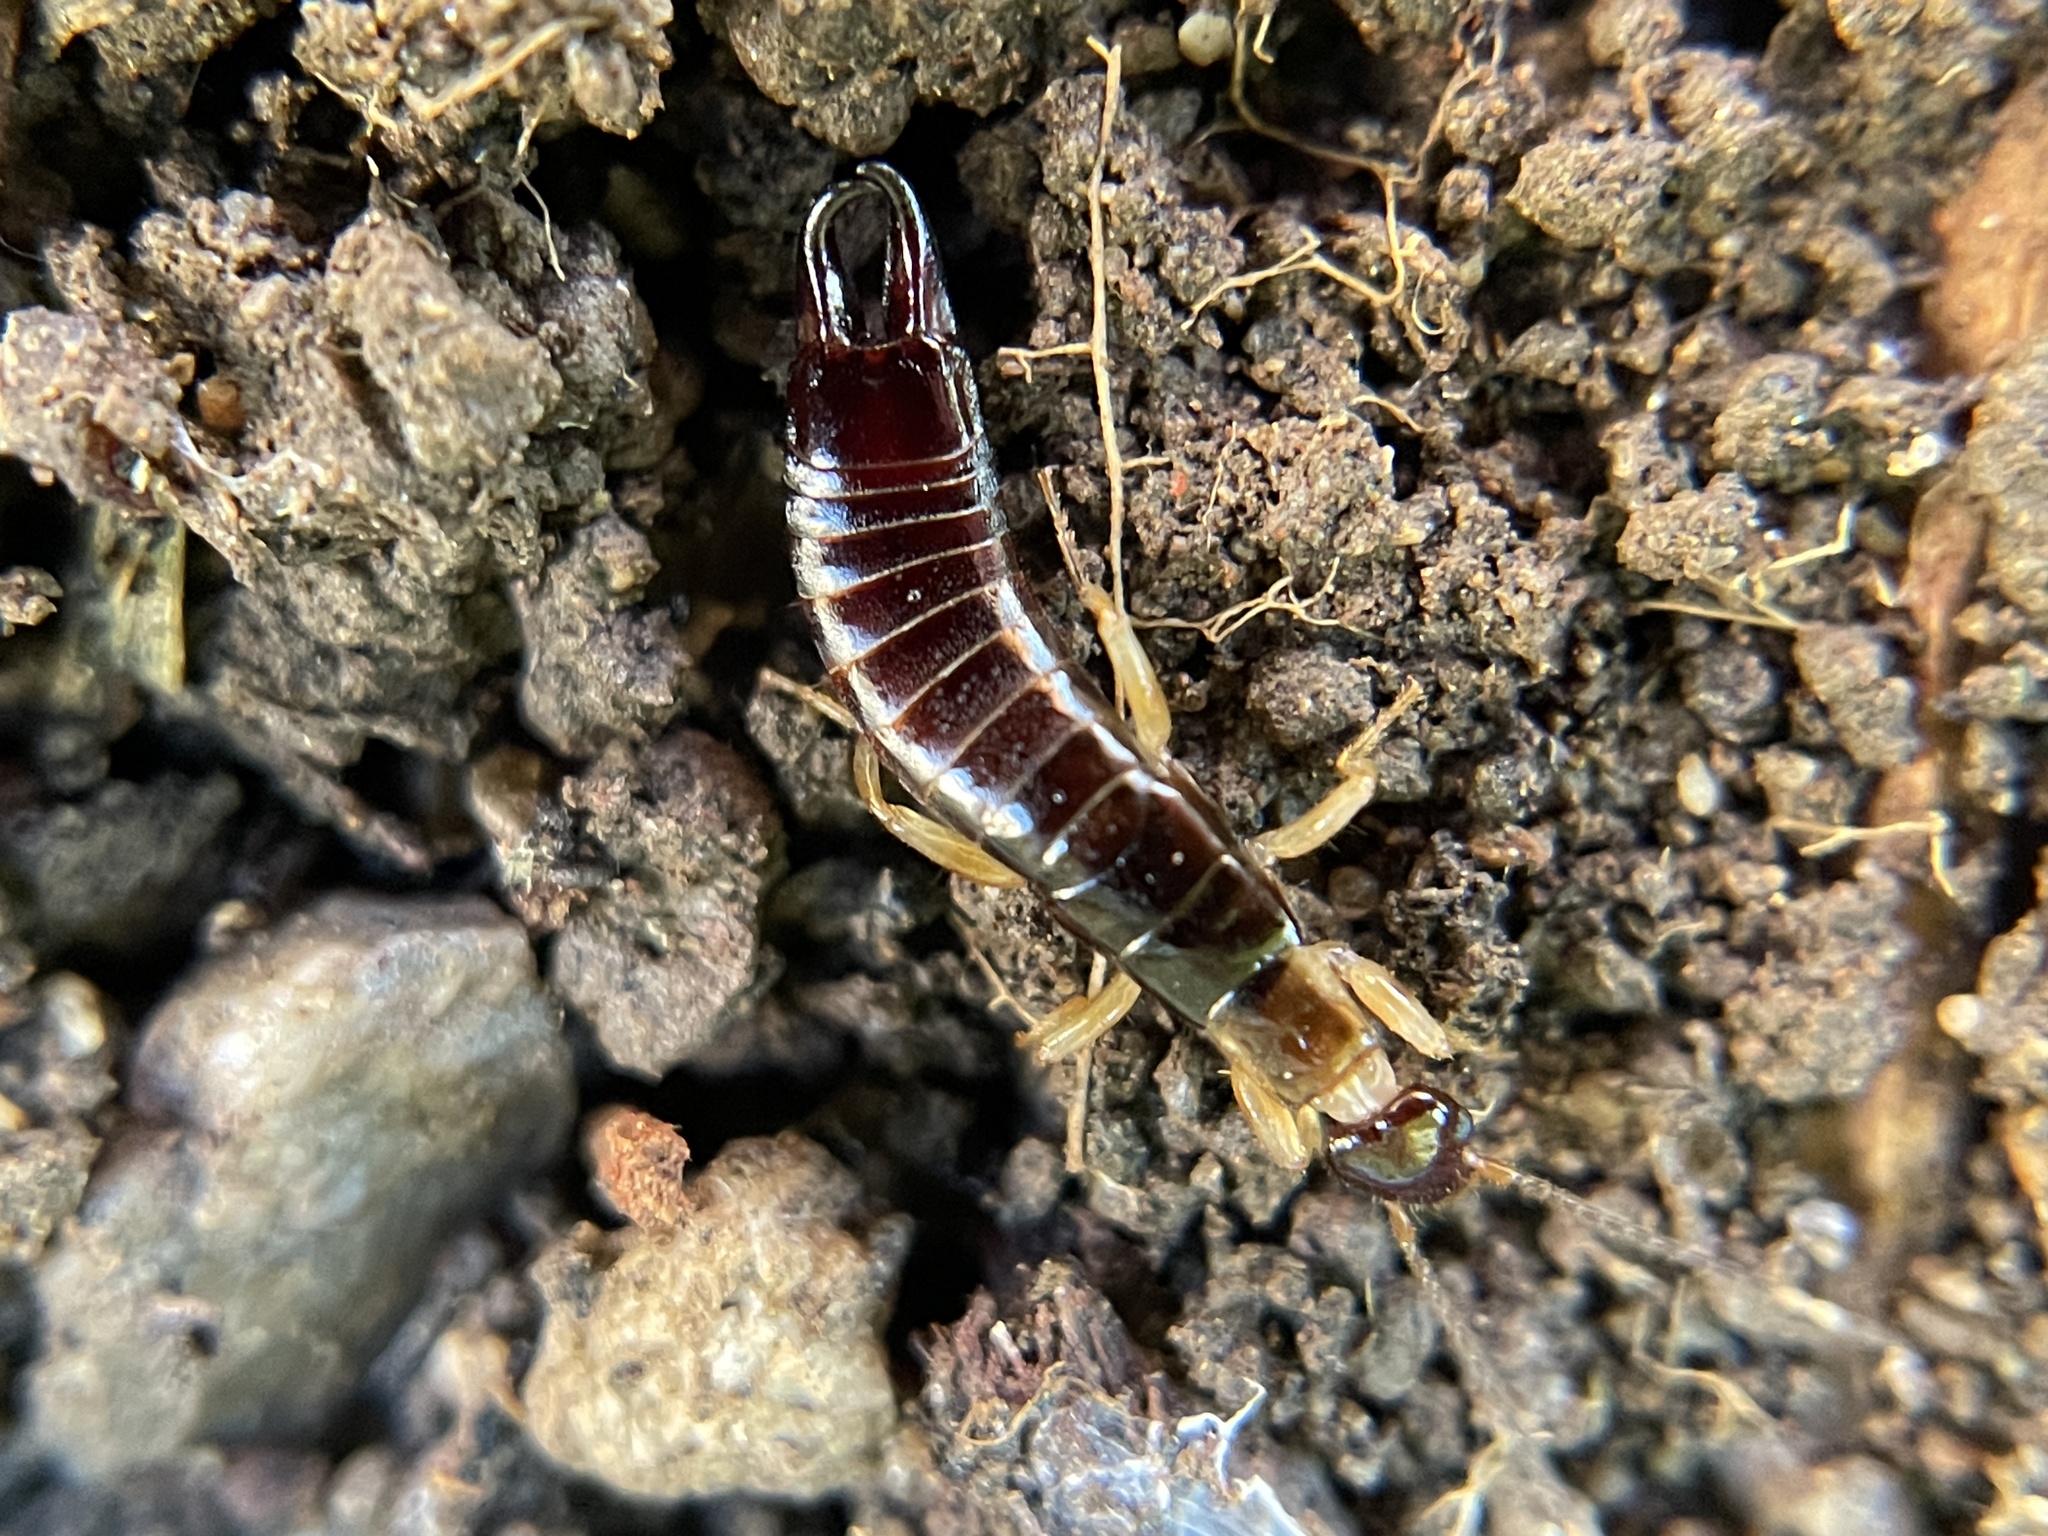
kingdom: Animalia
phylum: Arthropoda
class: Insecta
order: Dermaptera
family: Anisolabididae
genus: Euborellia
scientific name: Euborellia annulipes
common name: Ringlegged earwig
